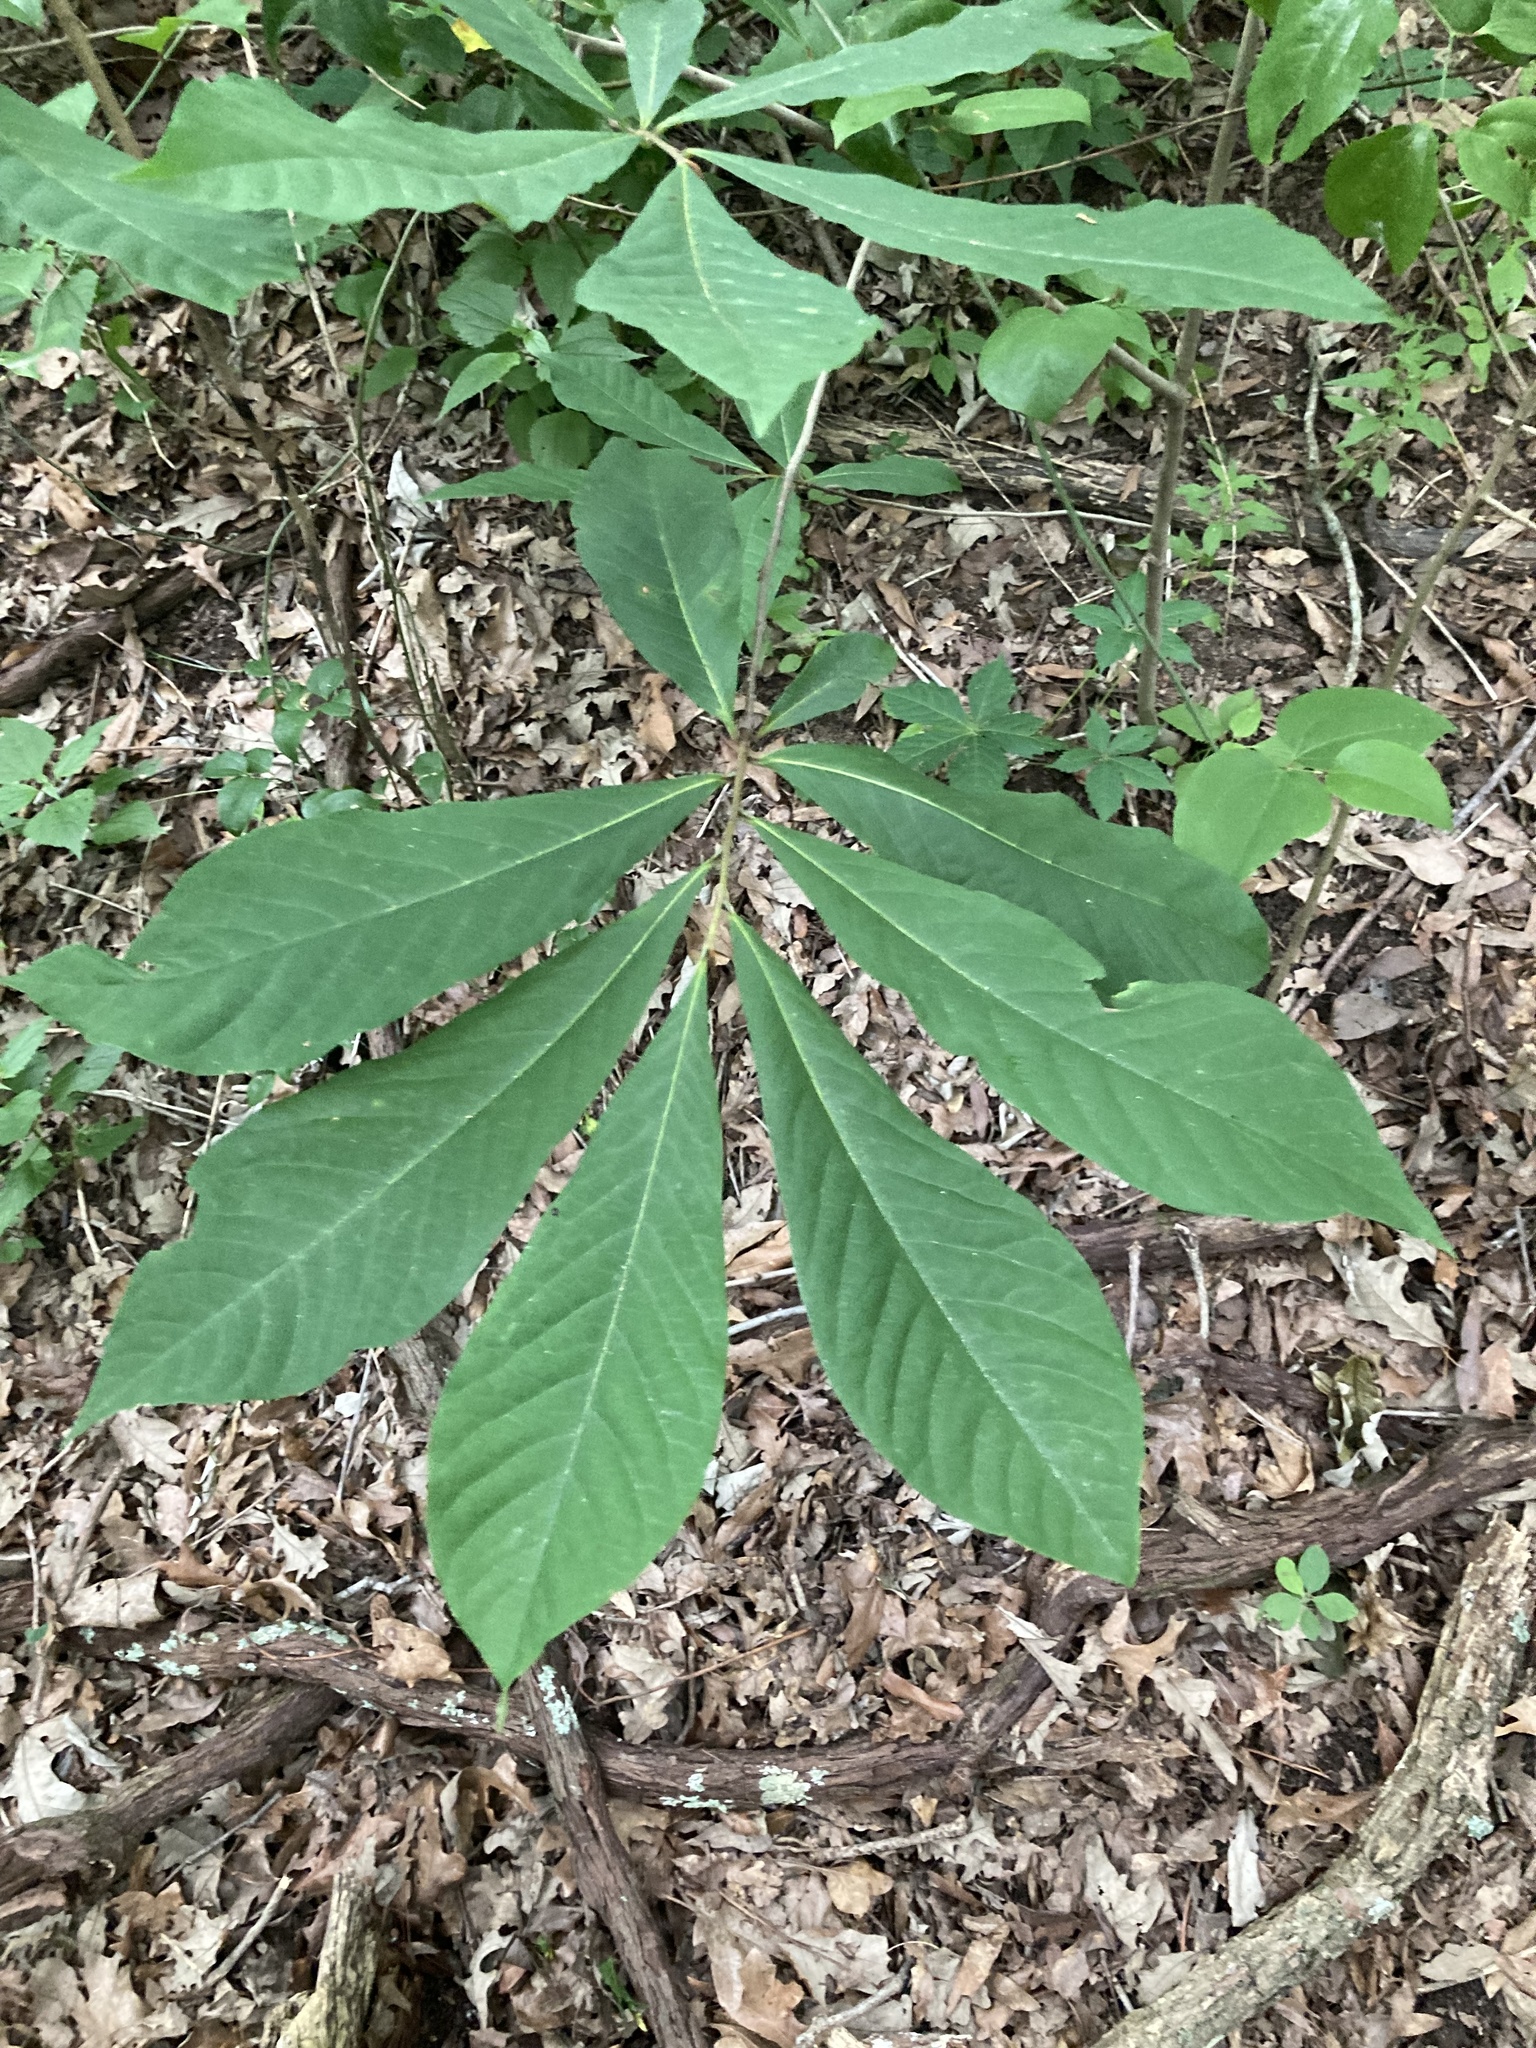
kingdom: Plantae
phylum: Tracheophyta
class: Magnoliopsida
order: Magnoliales
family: Annonaceae
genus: Asimina
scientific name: Asimina triloba
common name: Dog-banana
